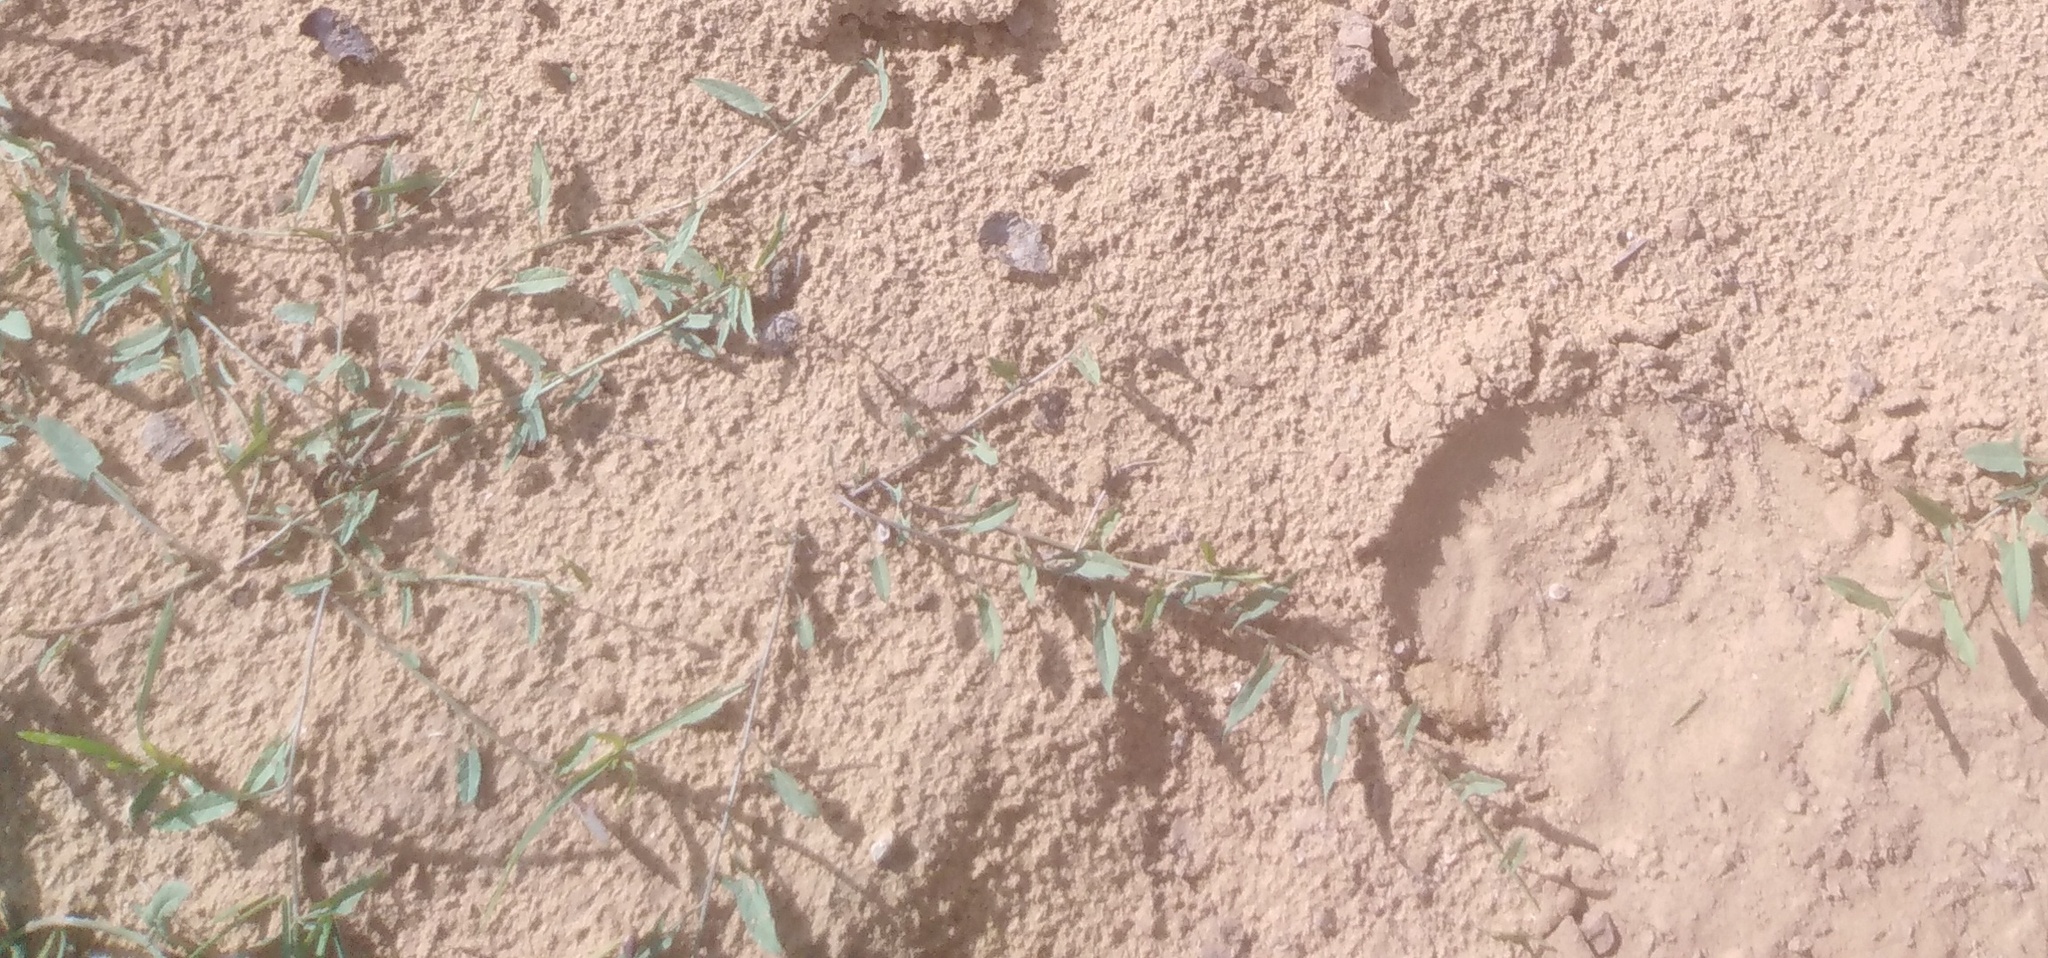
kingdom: Plantae
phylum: Tracheophyta
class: Magnoliopsida
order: Solanales
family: Convolvulaceae
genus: Convolvulus
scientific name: Convolvulus arvensis
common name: Field bindweed
